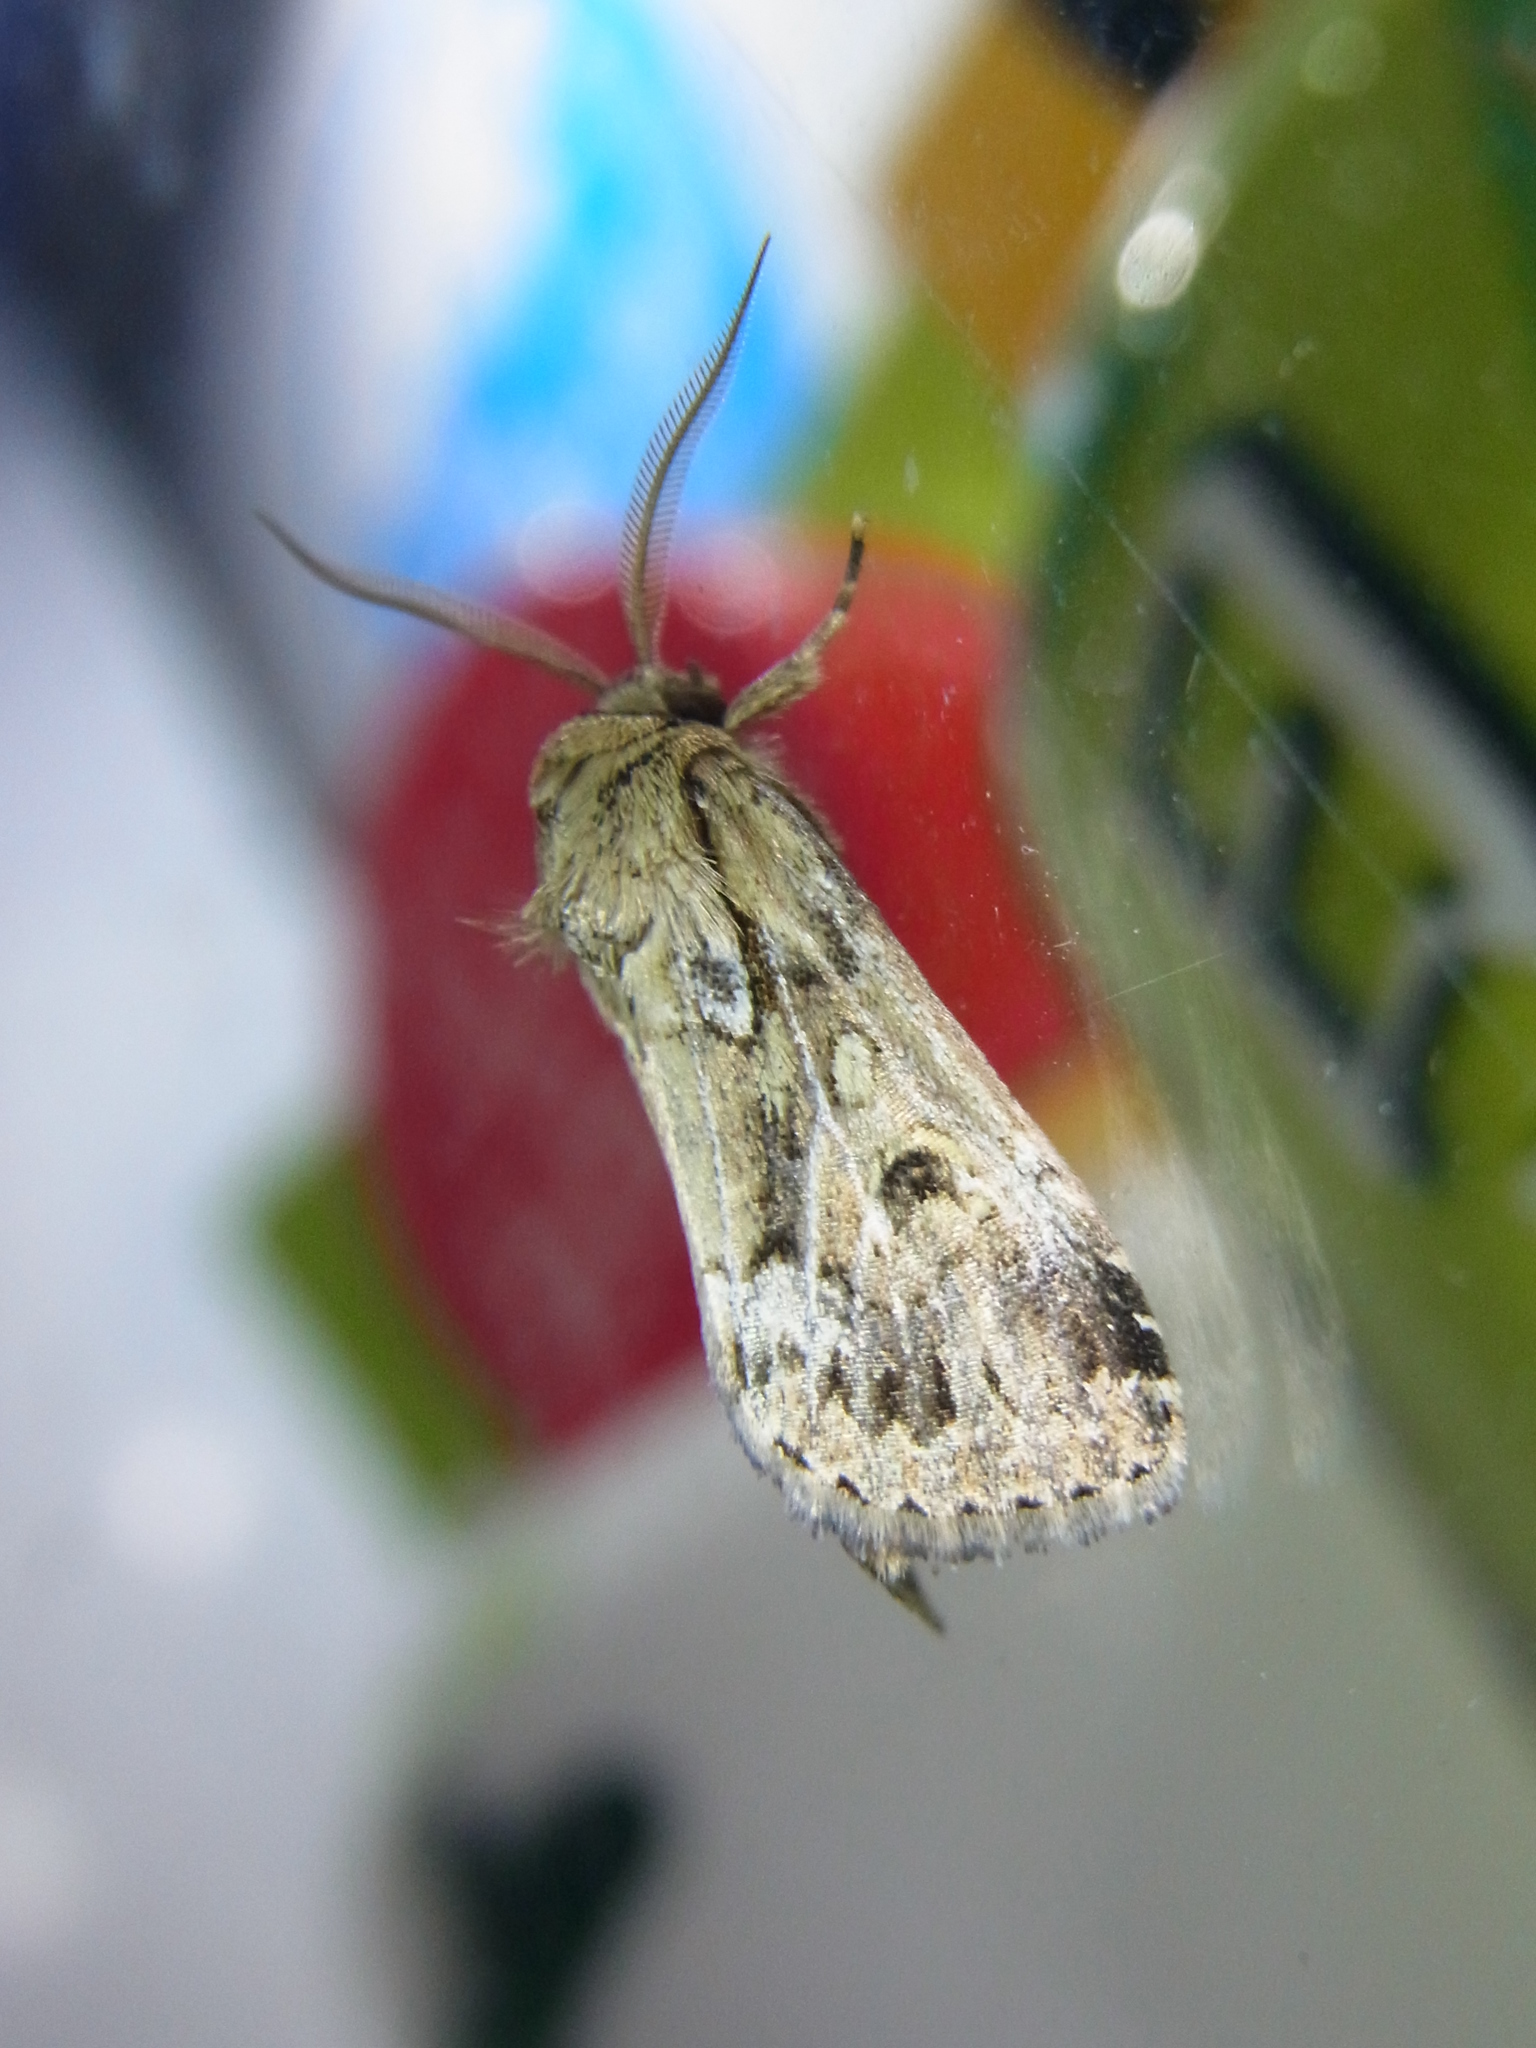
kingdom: Animalia
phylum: Arthropoda
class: Insecta
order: Lepidoptera
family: Noctuidae
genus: Spodoptera
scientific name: Spodoptera depravata
